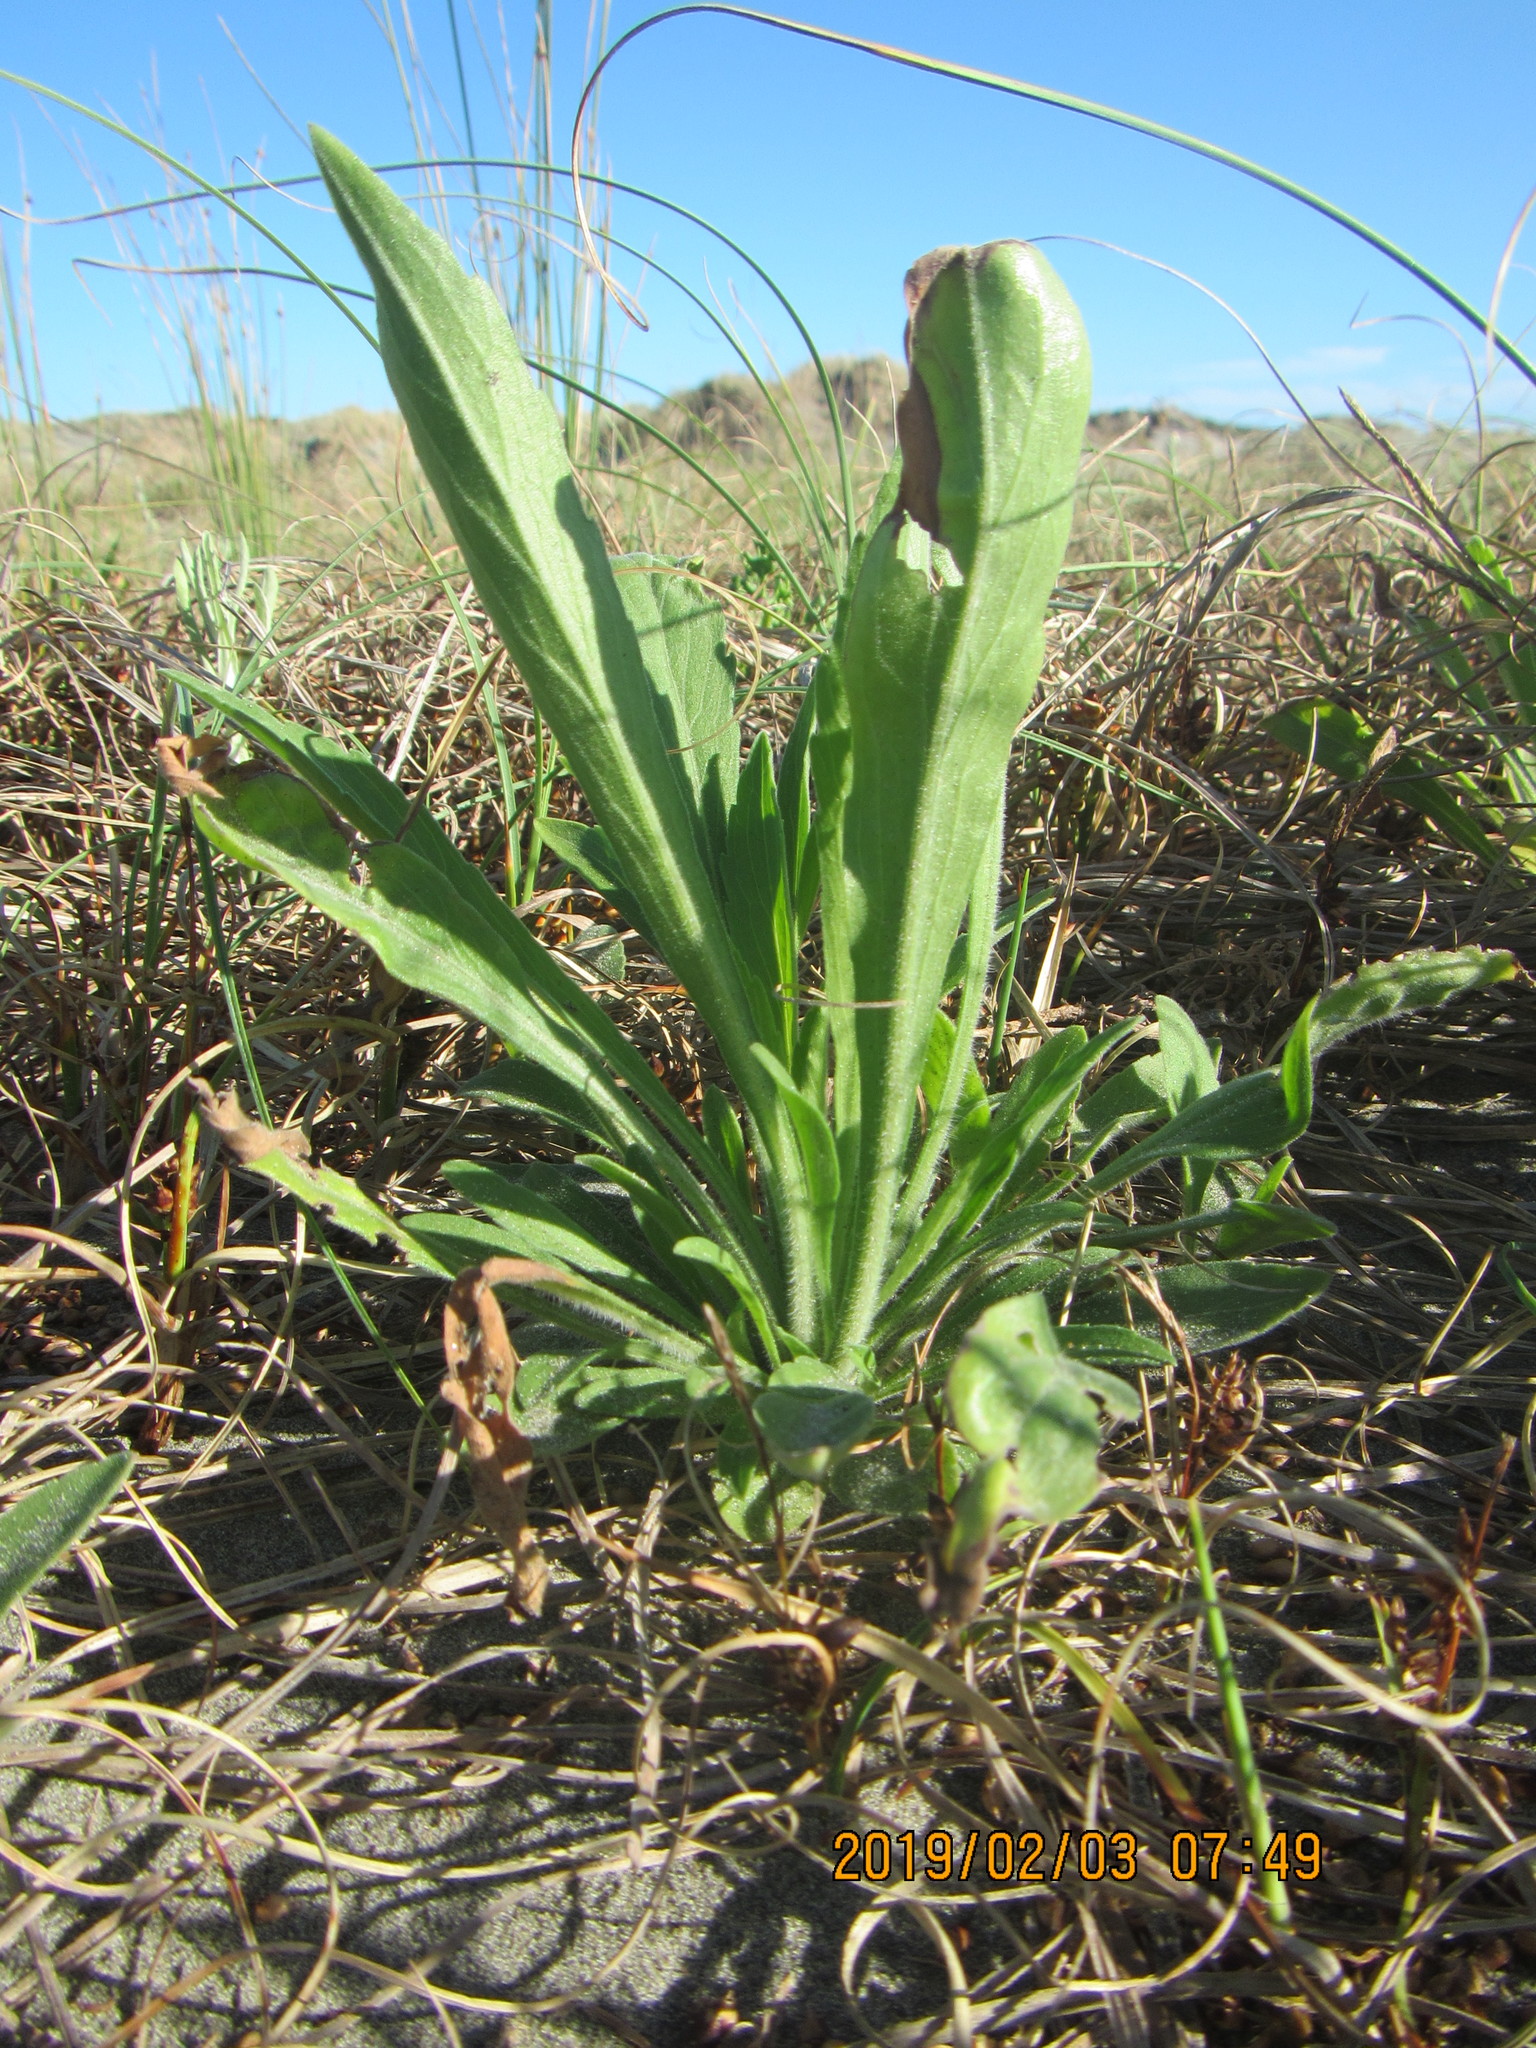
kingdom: Plantae
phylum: Tracheophyta
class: Magnoliopsida
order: Asterales
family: Asteraceae
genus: Erigeron
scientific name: Erigeron sumatrensis
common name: Daisy
